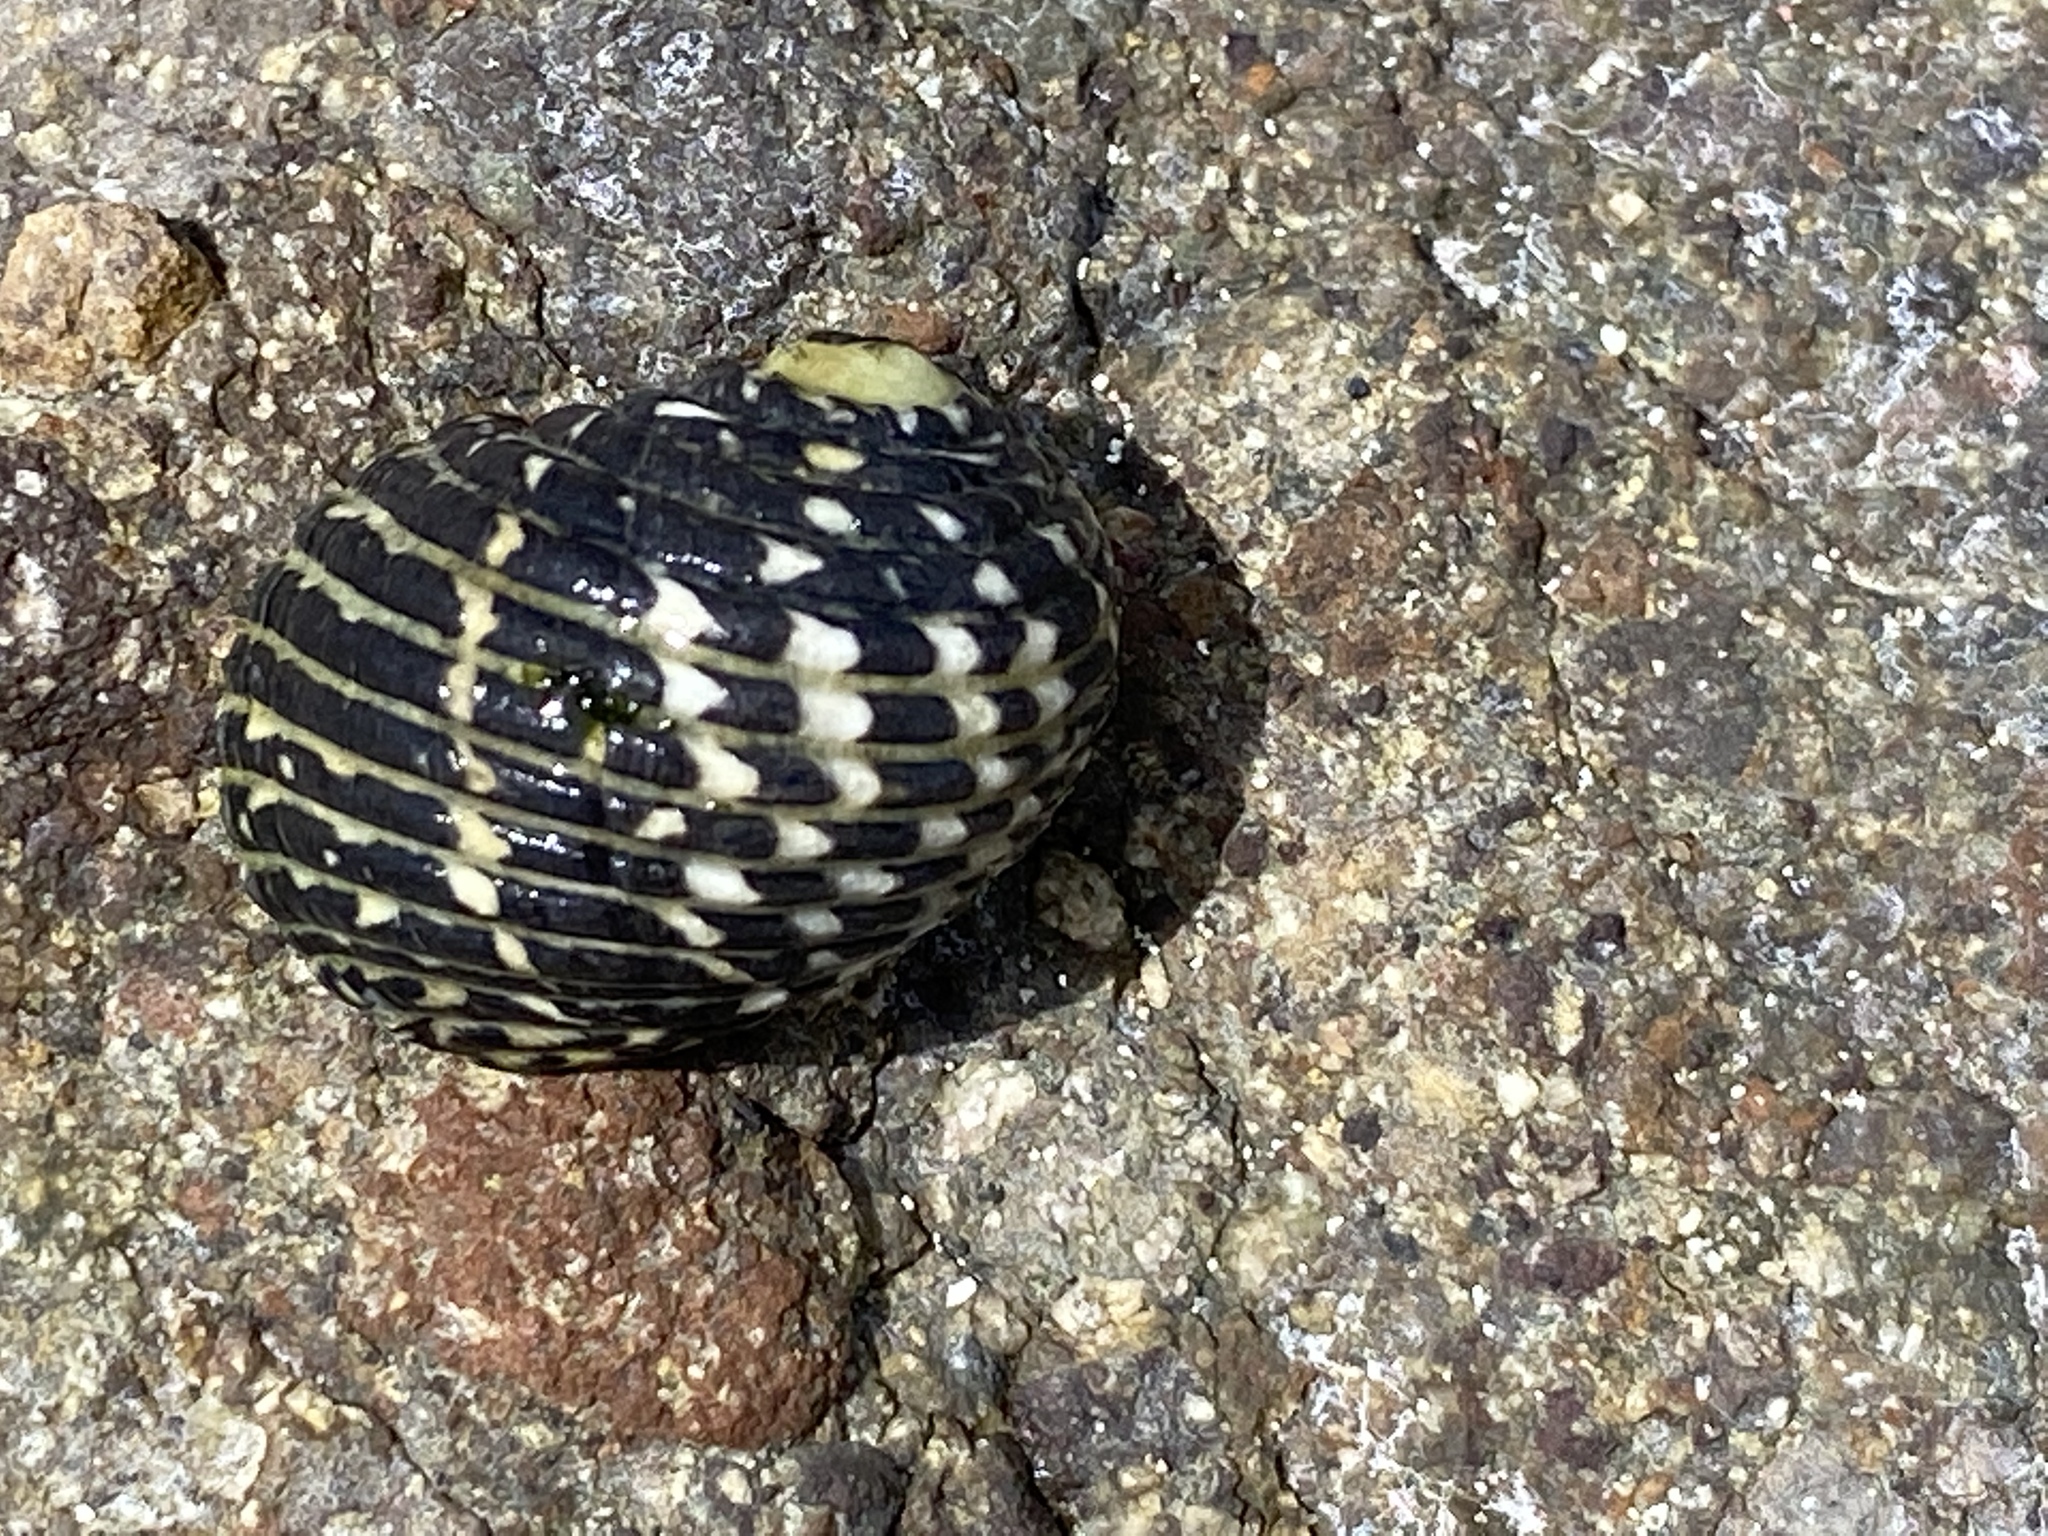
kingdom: Animalia
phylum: Mollusca
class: Gastropoda
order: Cycloneritida
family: Neritidae
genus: Nerita
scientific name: Nerita tessellata
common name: Checkered nerite
